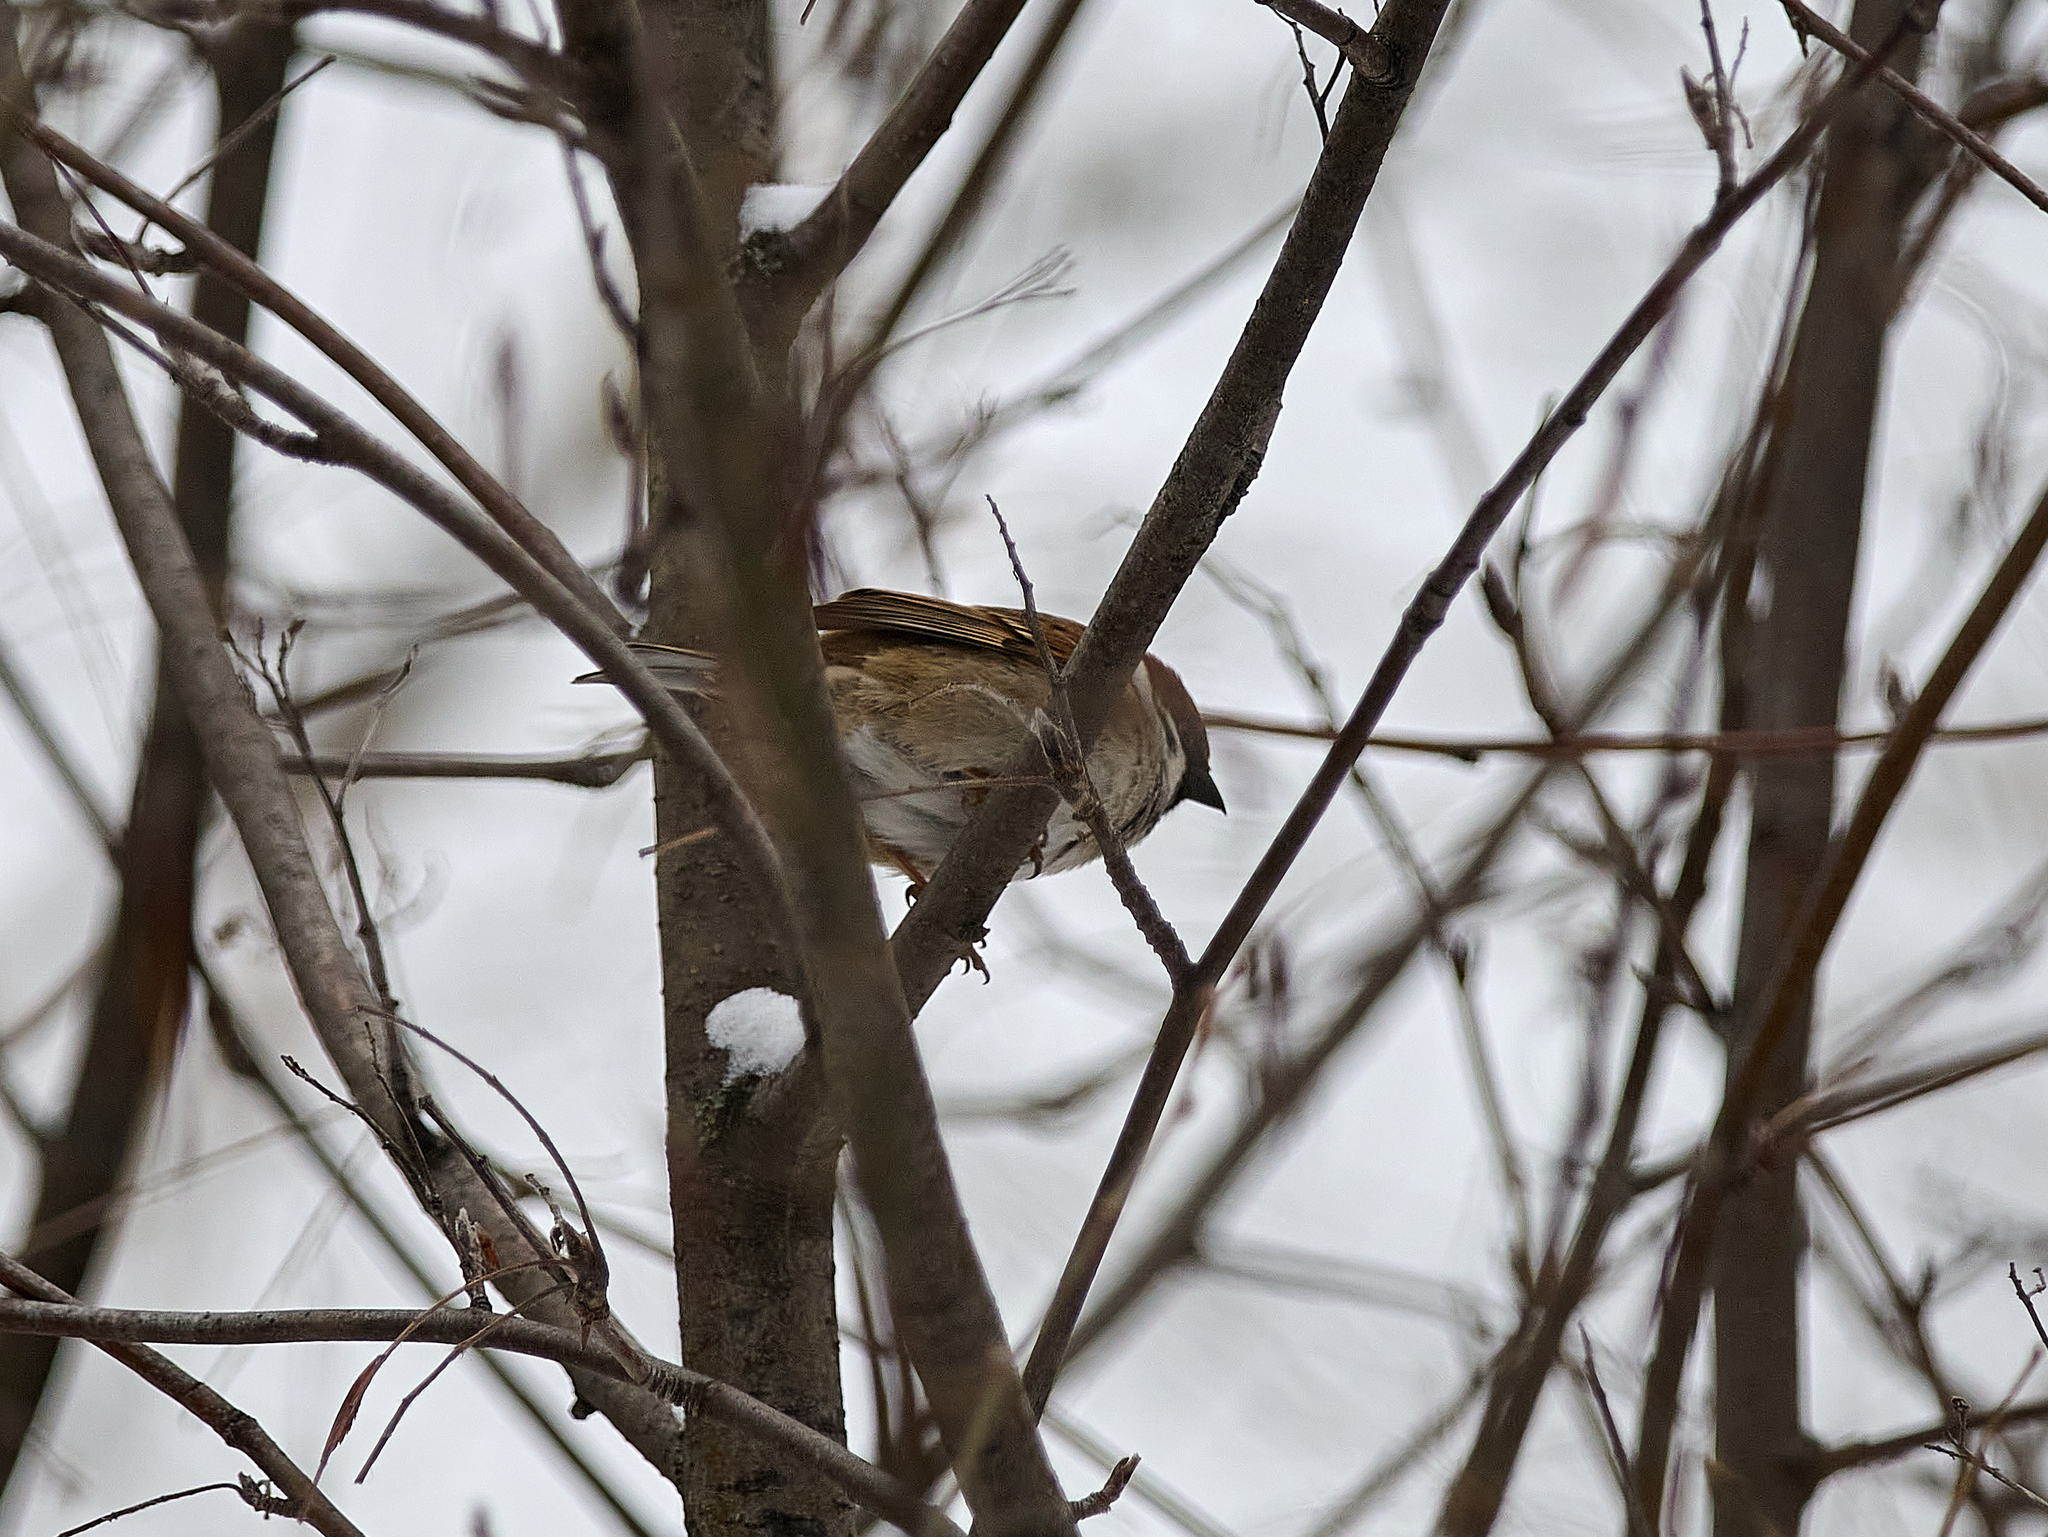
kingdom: Animalia
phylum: Chordata
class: Aves
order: Passeriformes
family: Passeridae
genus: Passer
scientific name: Passer montanus
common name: Eurasian tree sparrow
